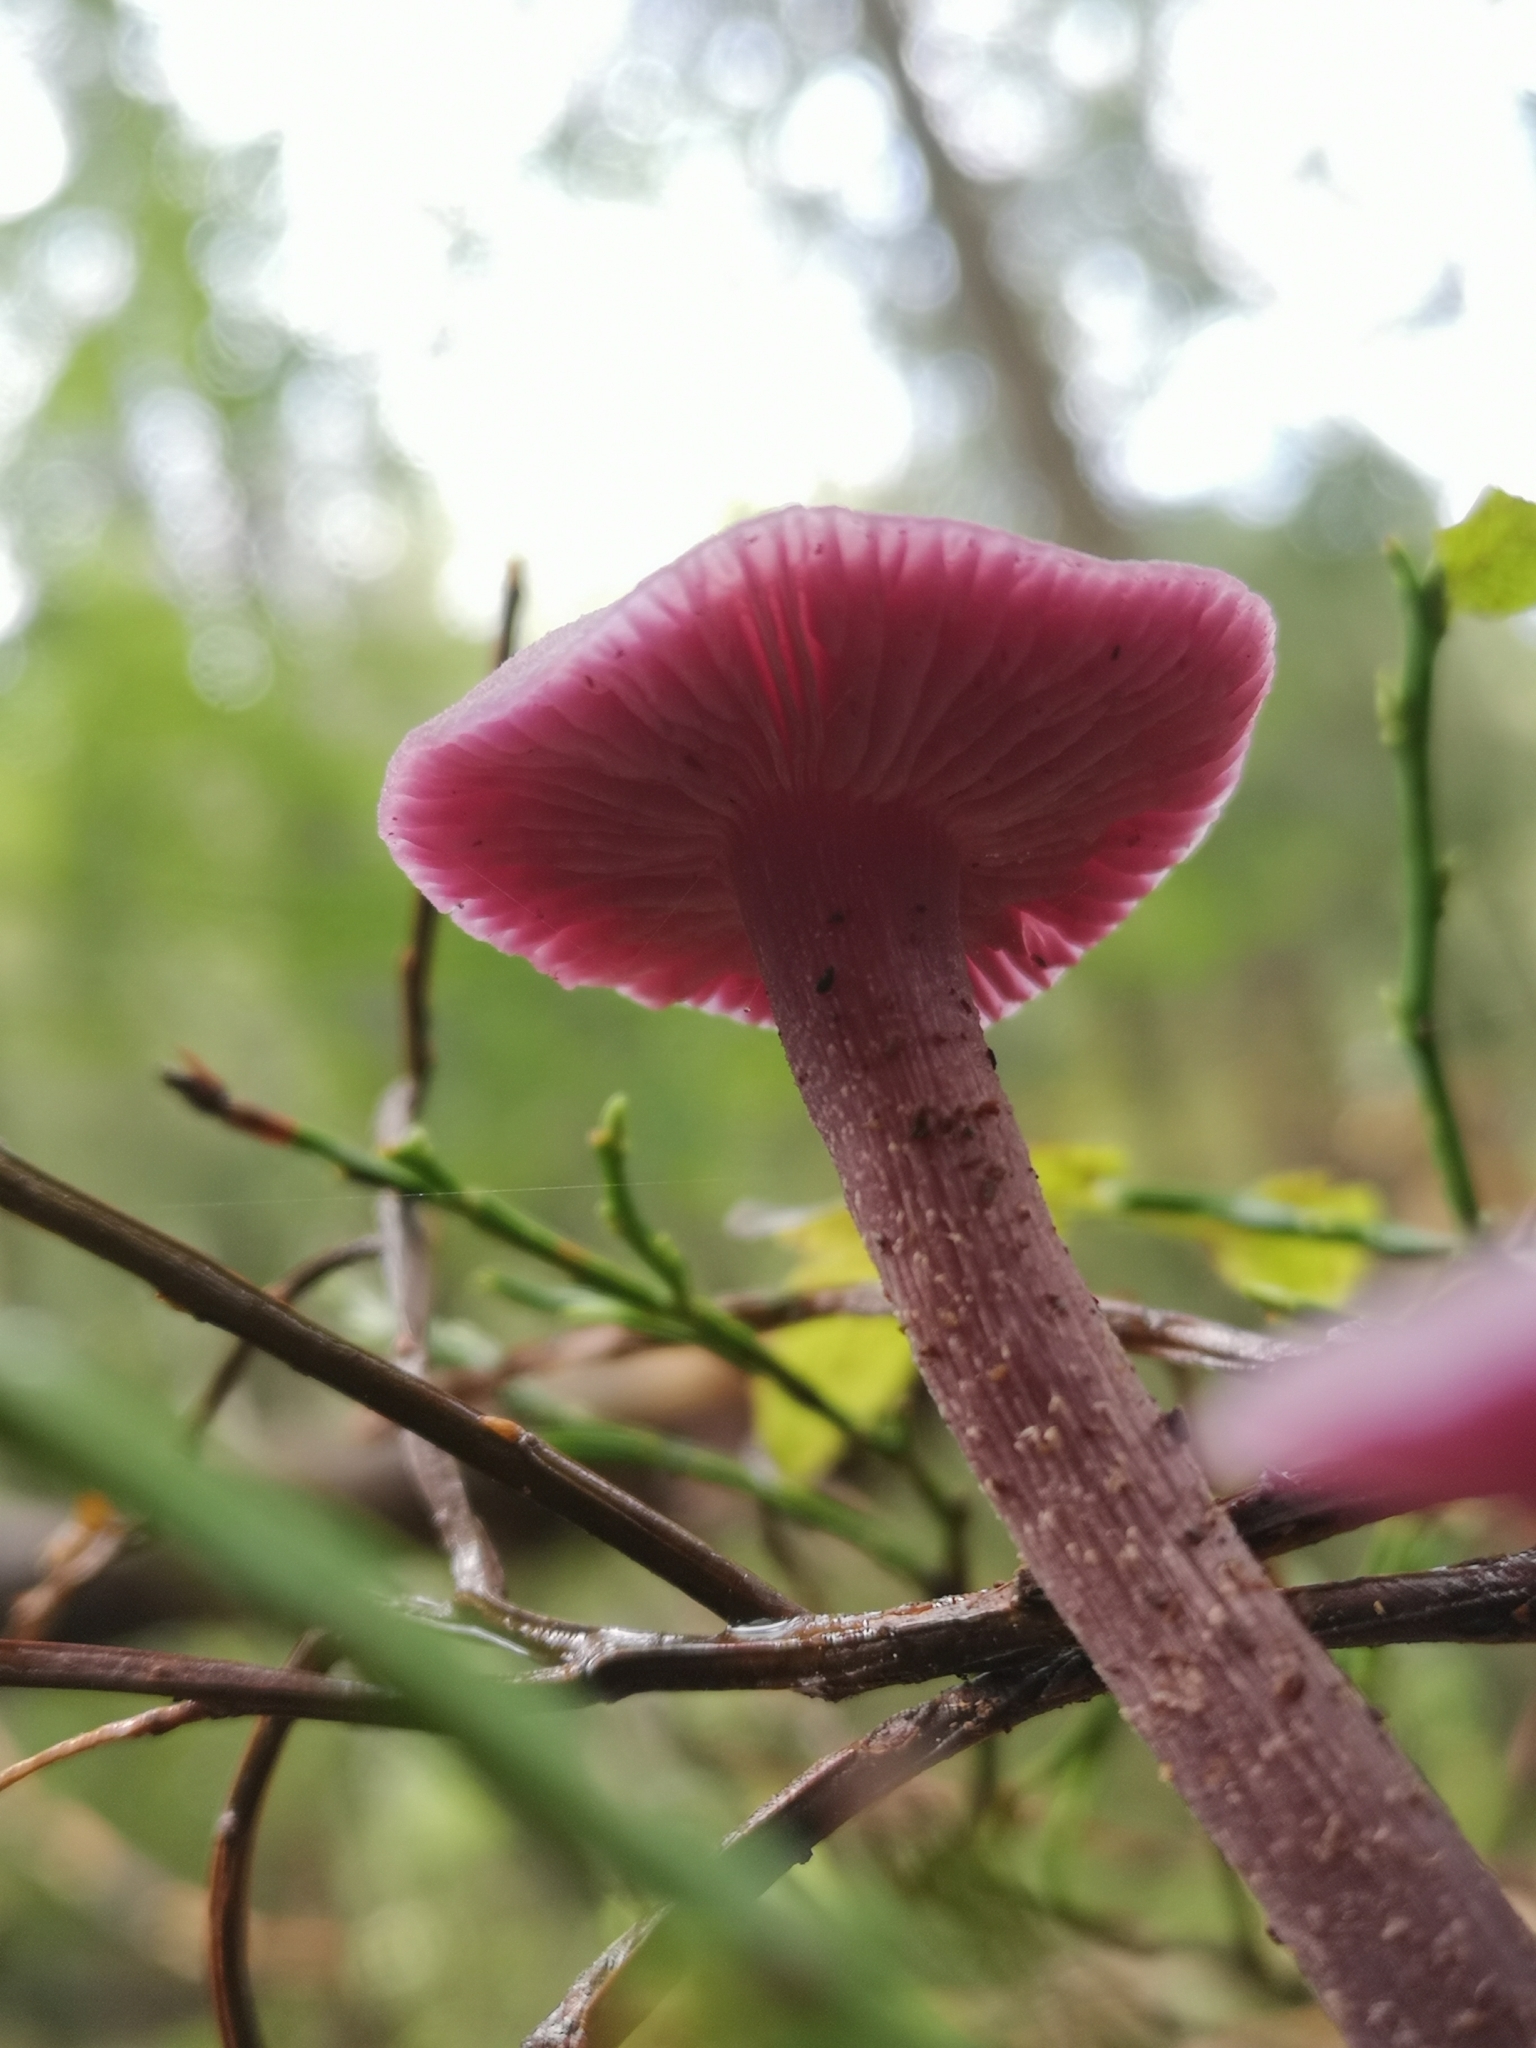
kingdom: Fungi
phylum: Basidiomycota
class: Agaricomycetes
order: Agaricales
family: Hydnangiaceae
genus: Laccaria
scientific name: Laccaria amethystina
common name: Amethyst deceiver
